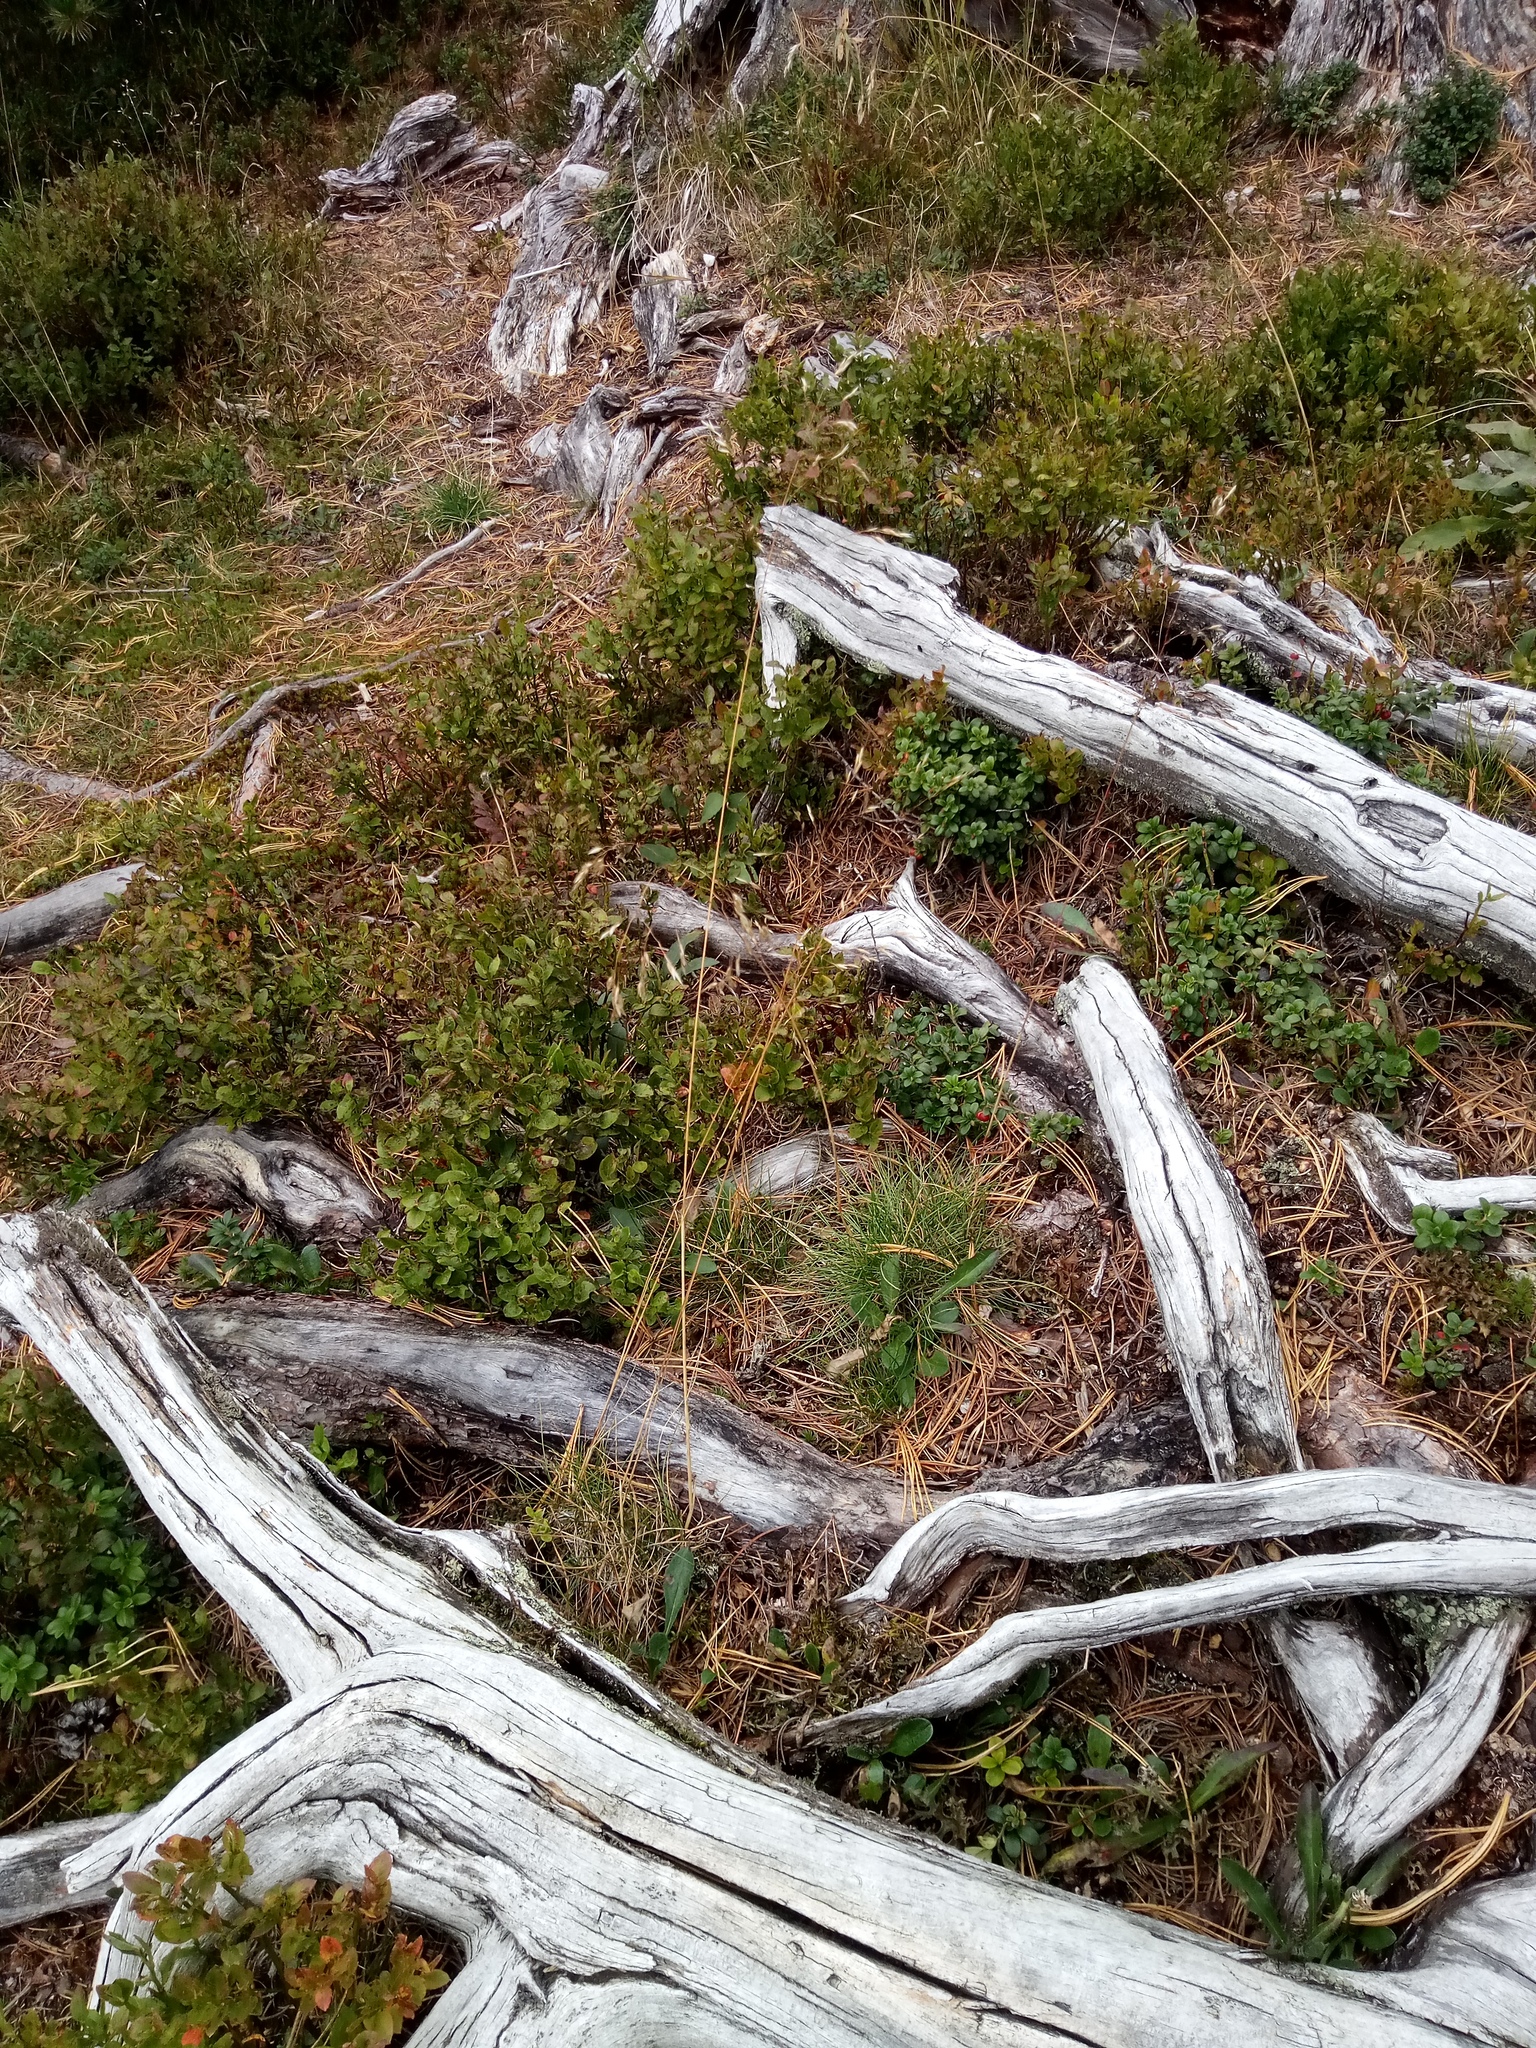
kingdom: Plantae
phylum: Tracheophyta
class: Liliopsida
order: Poales
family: Poaceae
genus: Avenella
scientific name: Avenella flexuosa
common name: Wavy hairgrass
